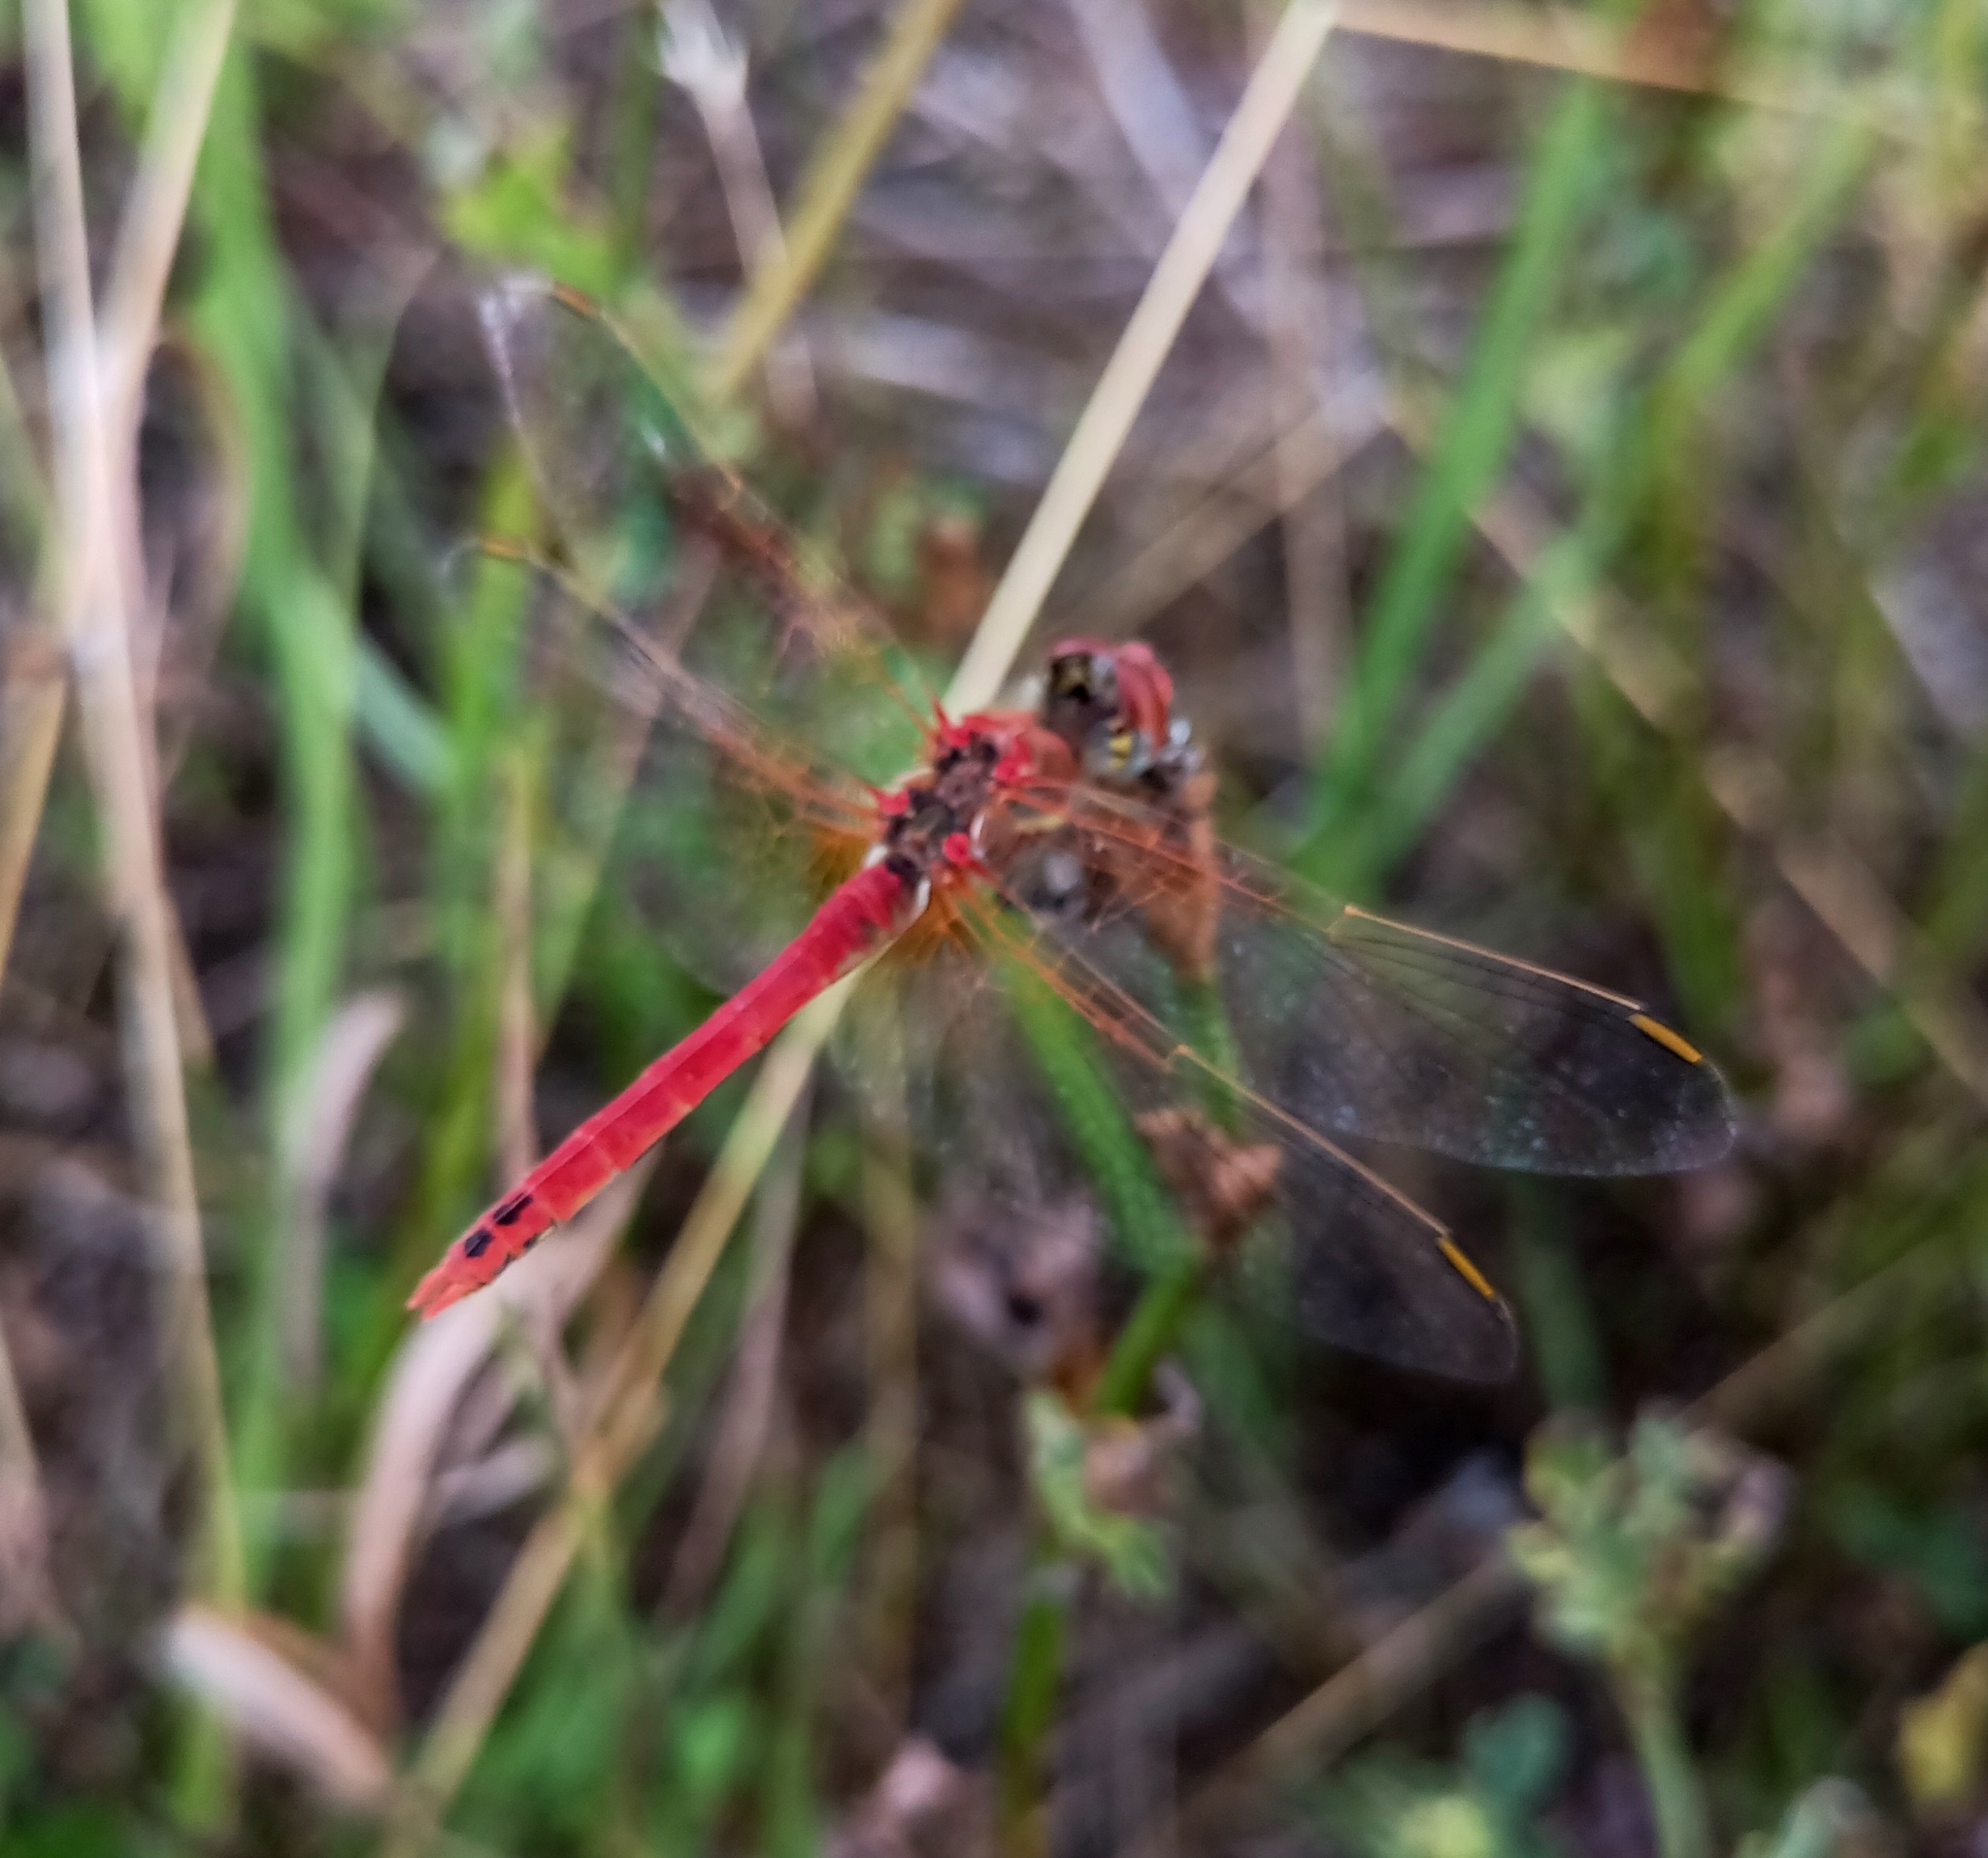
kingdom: Animalia
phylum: Arthropoda
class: Insecta
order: Odonata
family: Libellulidae
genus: Sympetrum
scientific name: Sympetrum fonscolombii
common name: Red-veined darter
